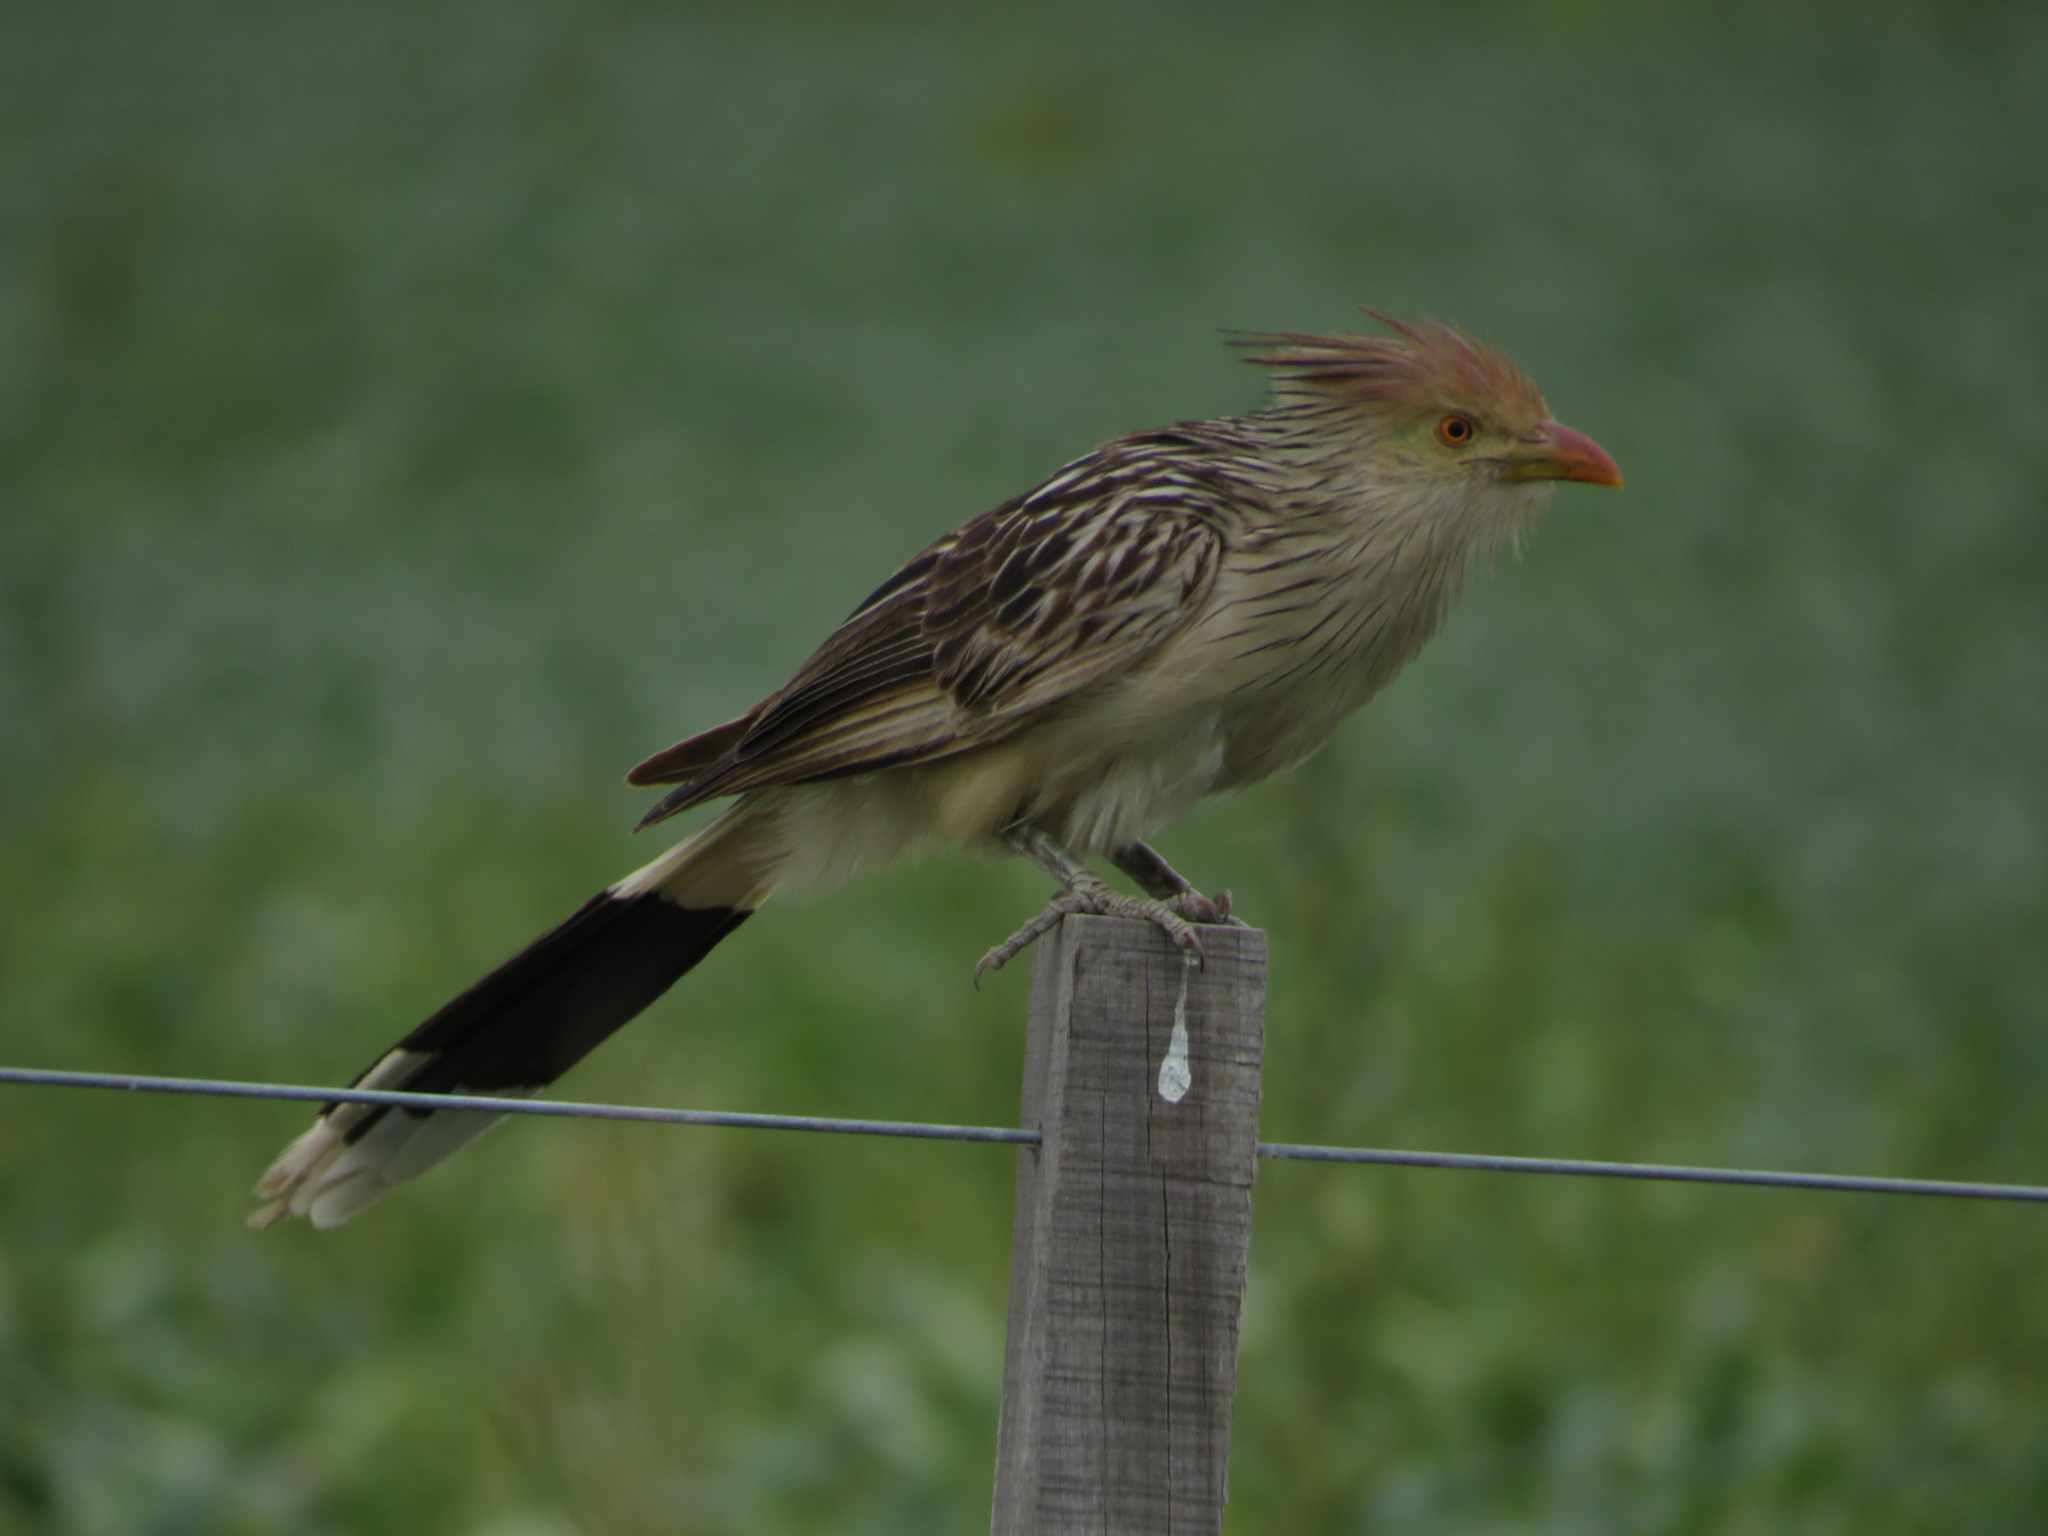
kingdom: Animalia
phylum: Chordata
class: Aves
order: Cuculiformes
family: Cuculidae
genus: Guira
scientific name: Guira guira
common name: Guira cuckoo
